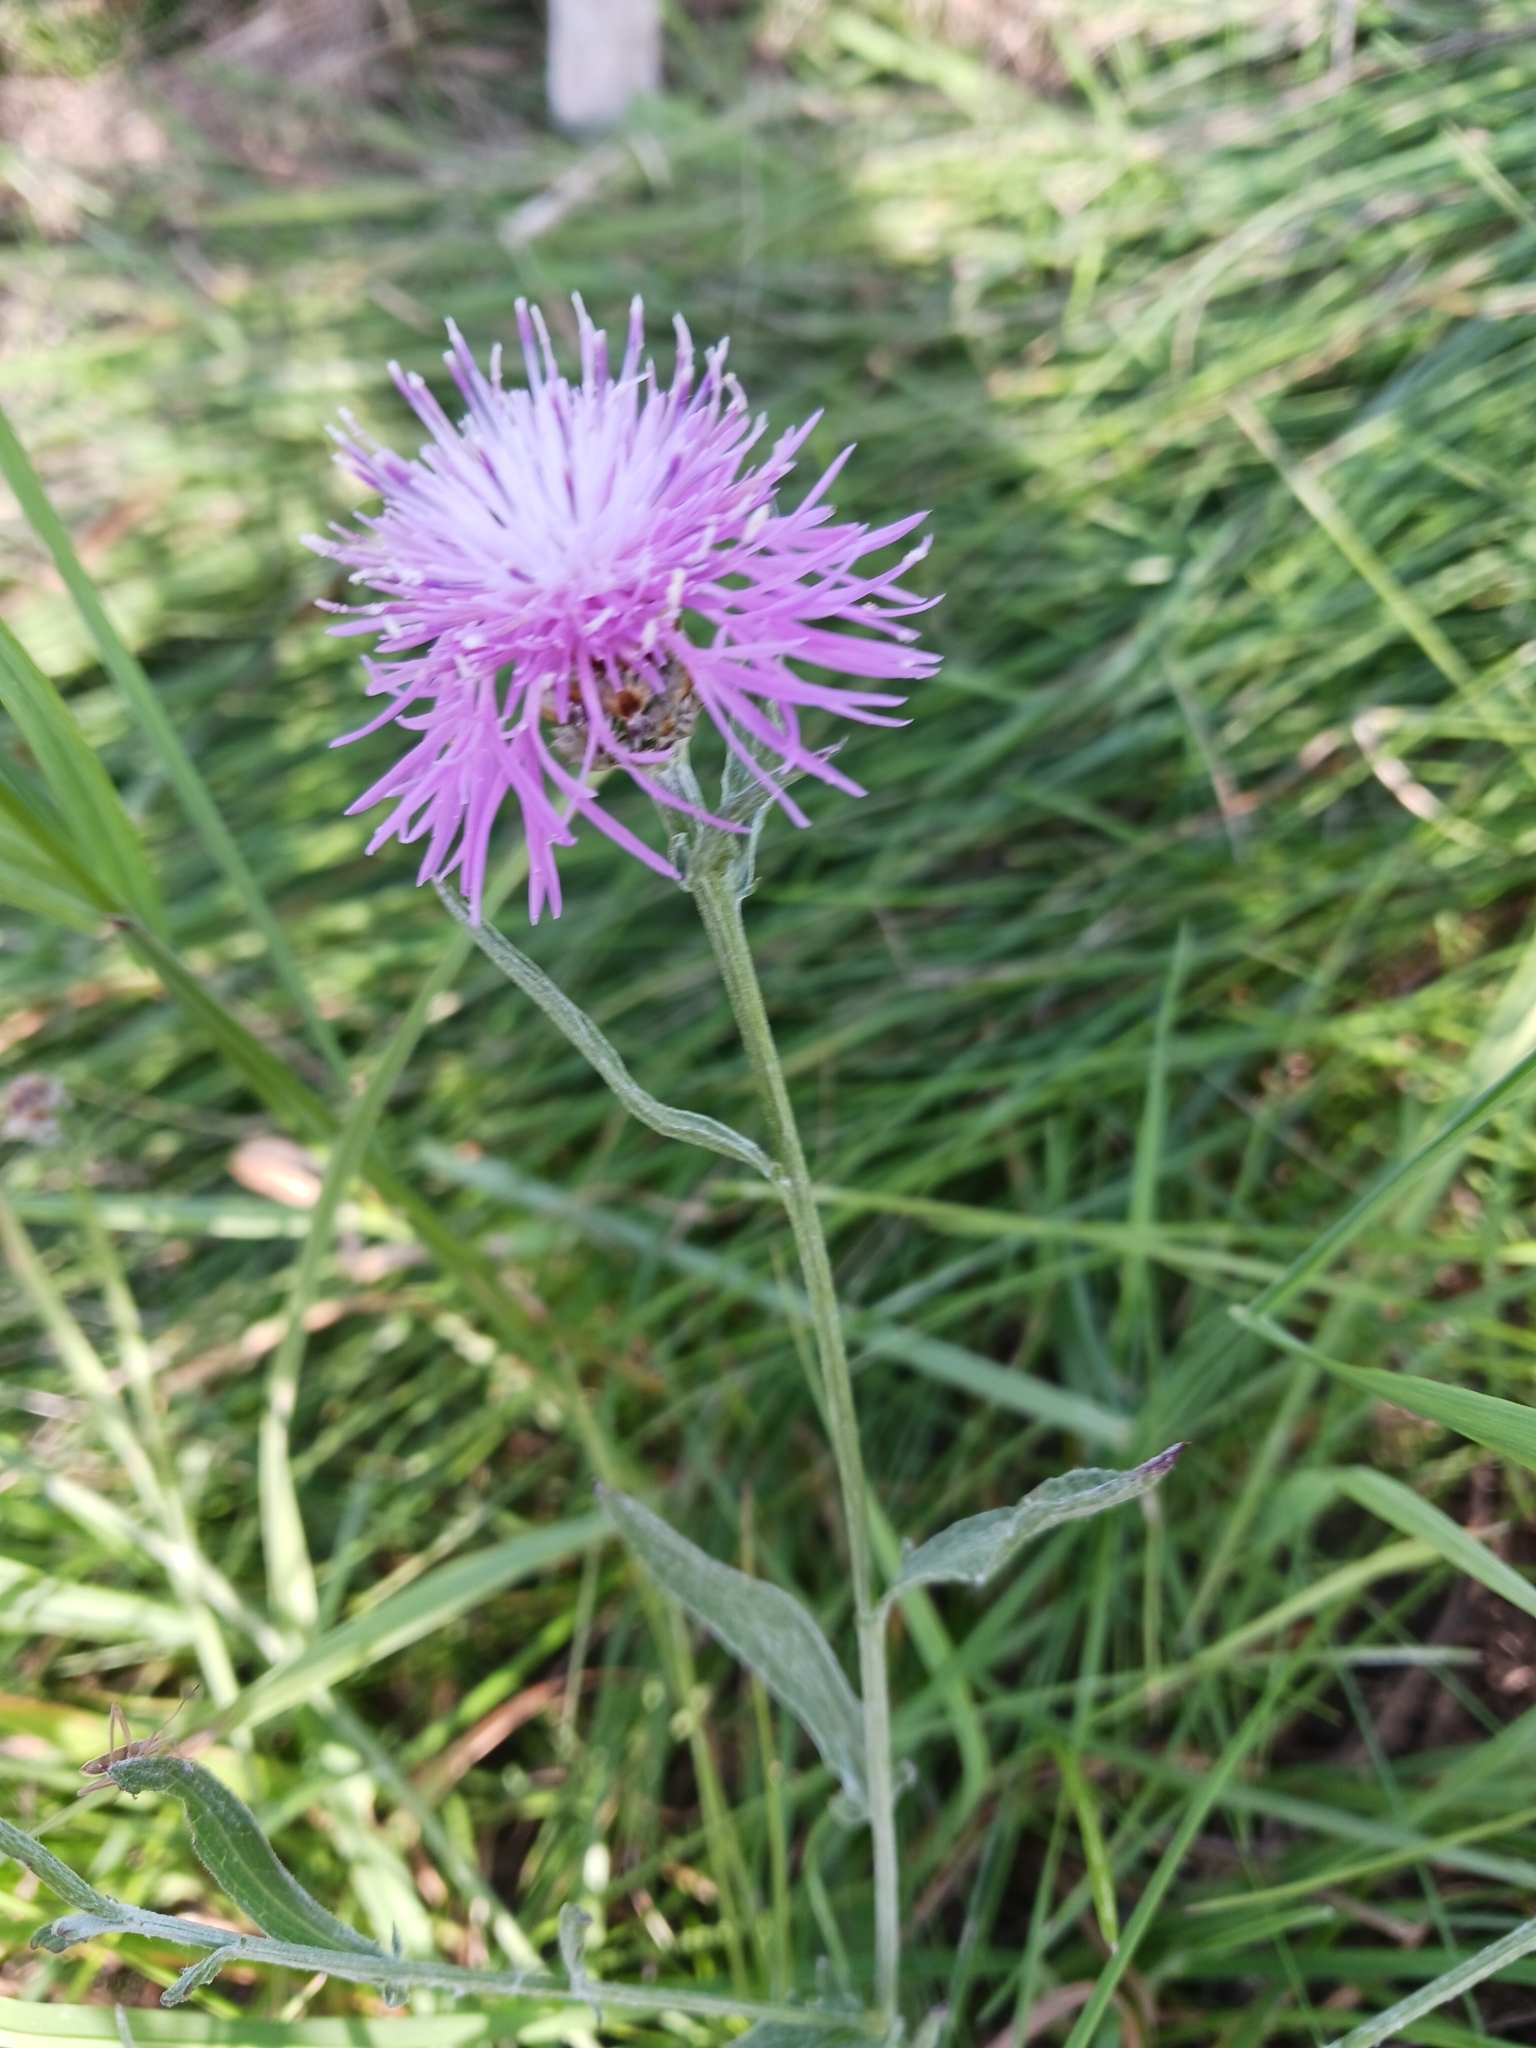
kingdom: Plantae
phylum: Tracheophyta
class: Magnoliopsida
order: Asterales
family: Asteraceae
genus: Centaurea
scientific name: Centaurea jacea
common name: Brown knapweed
